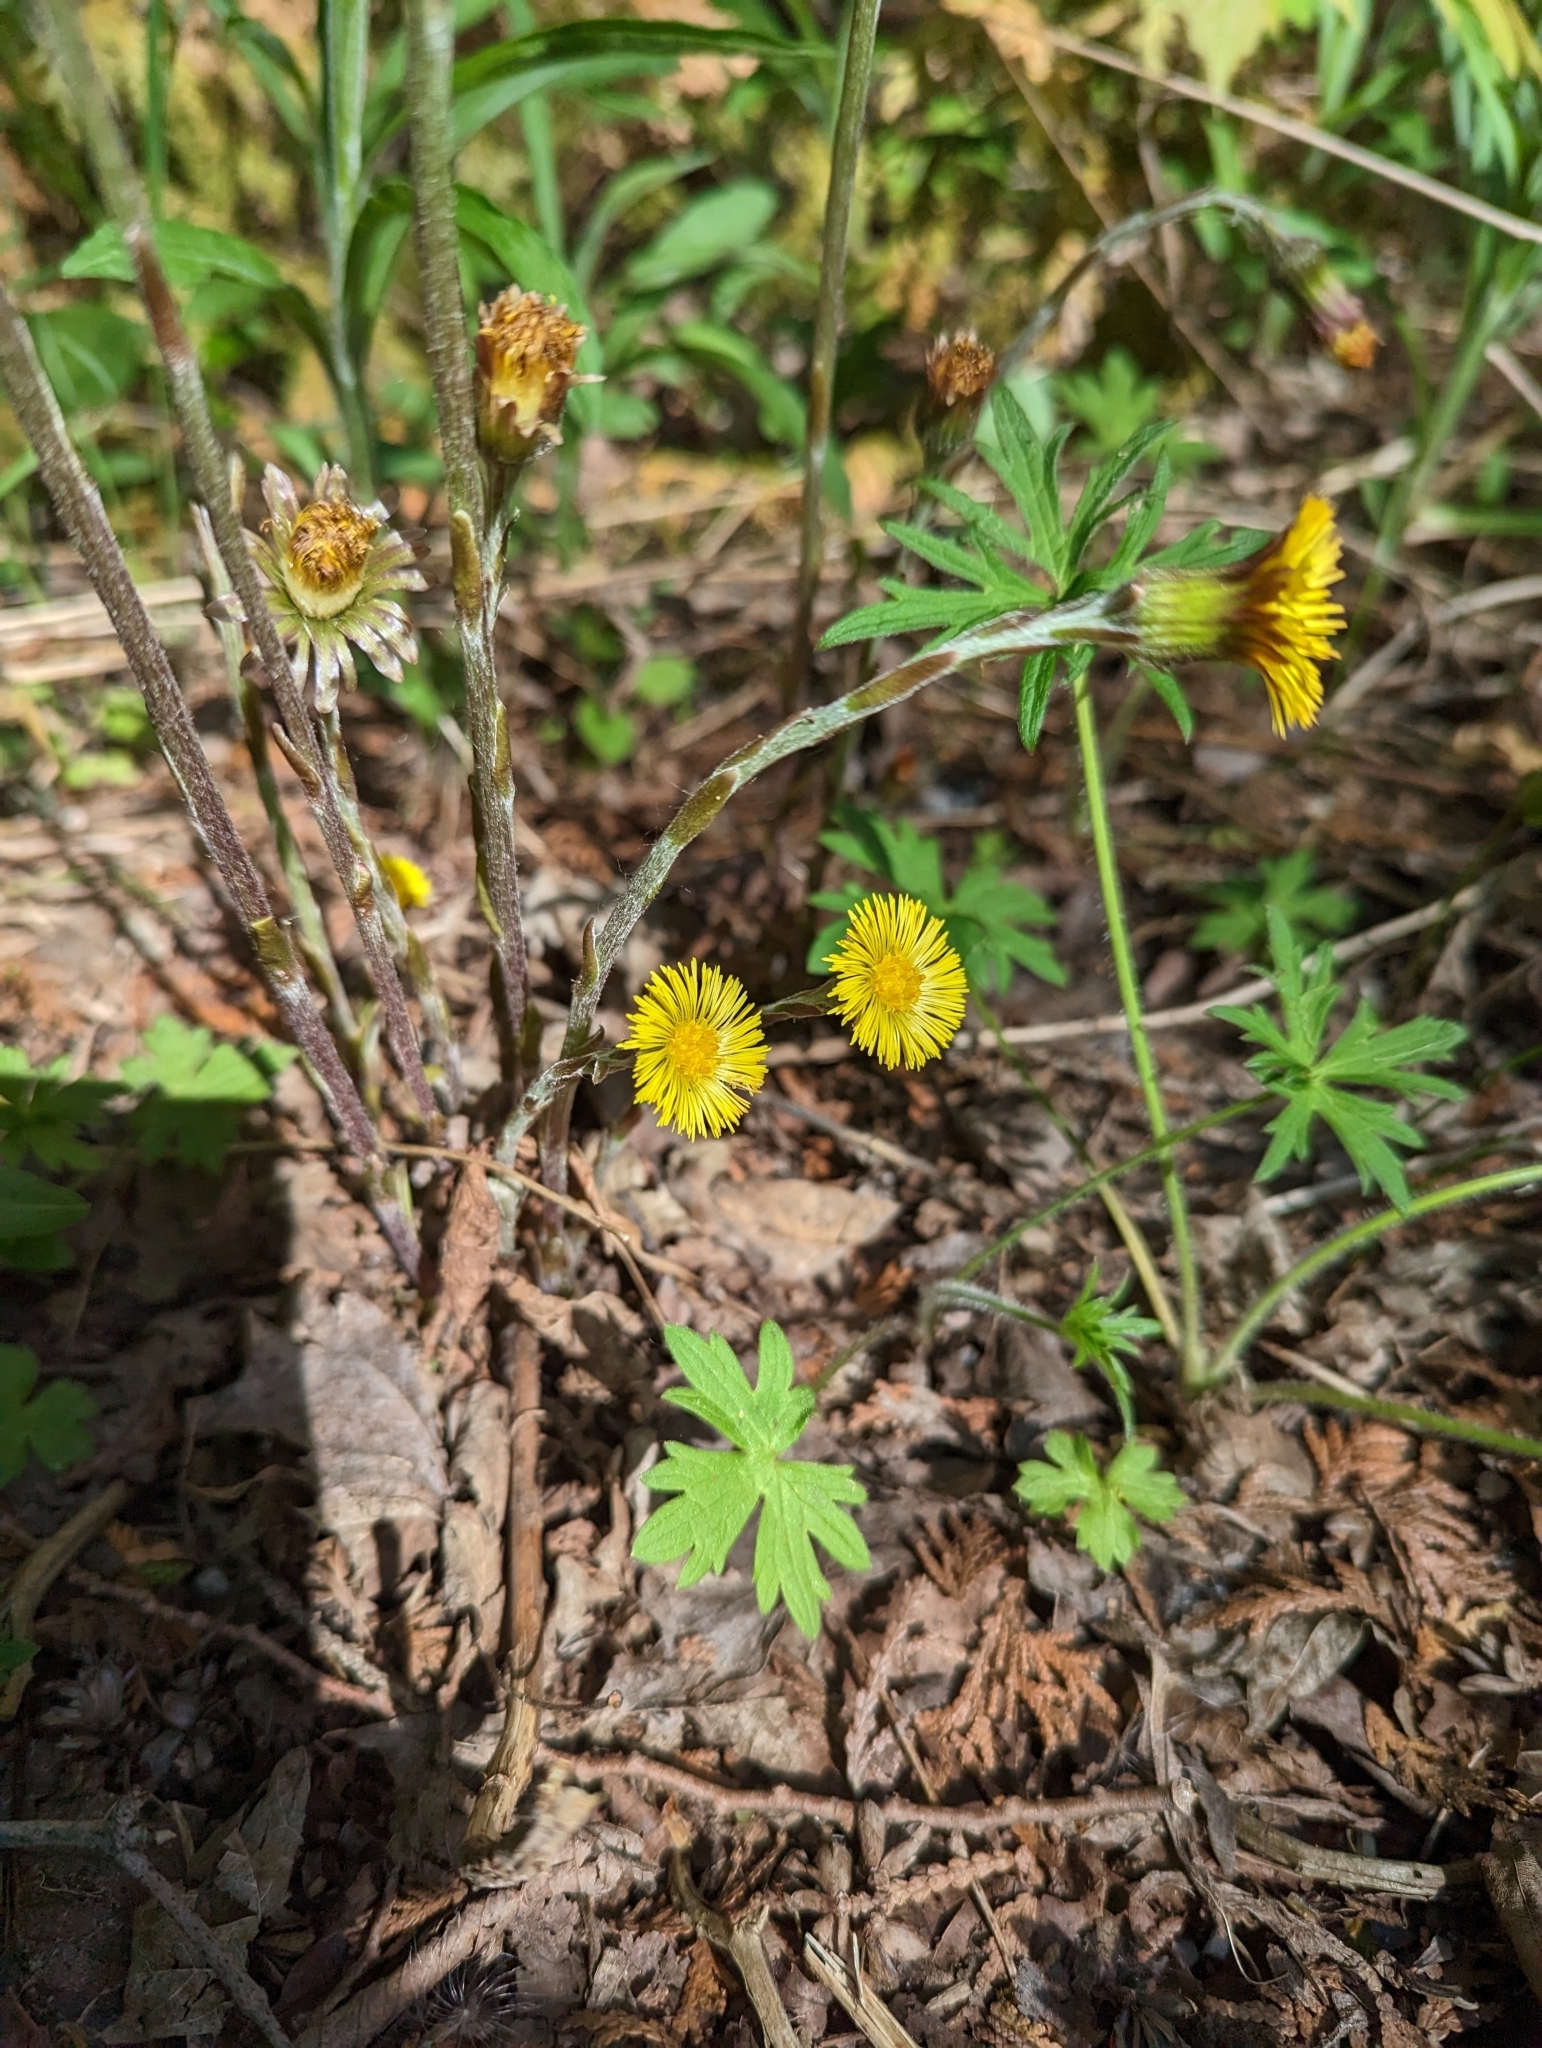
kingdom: Plantae
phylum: Tracheophyta
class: Magnoliopsida
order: Asterales
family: Asteraceae
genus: Tussilago
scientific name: Tussilago farfara
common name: Coltsfoot
